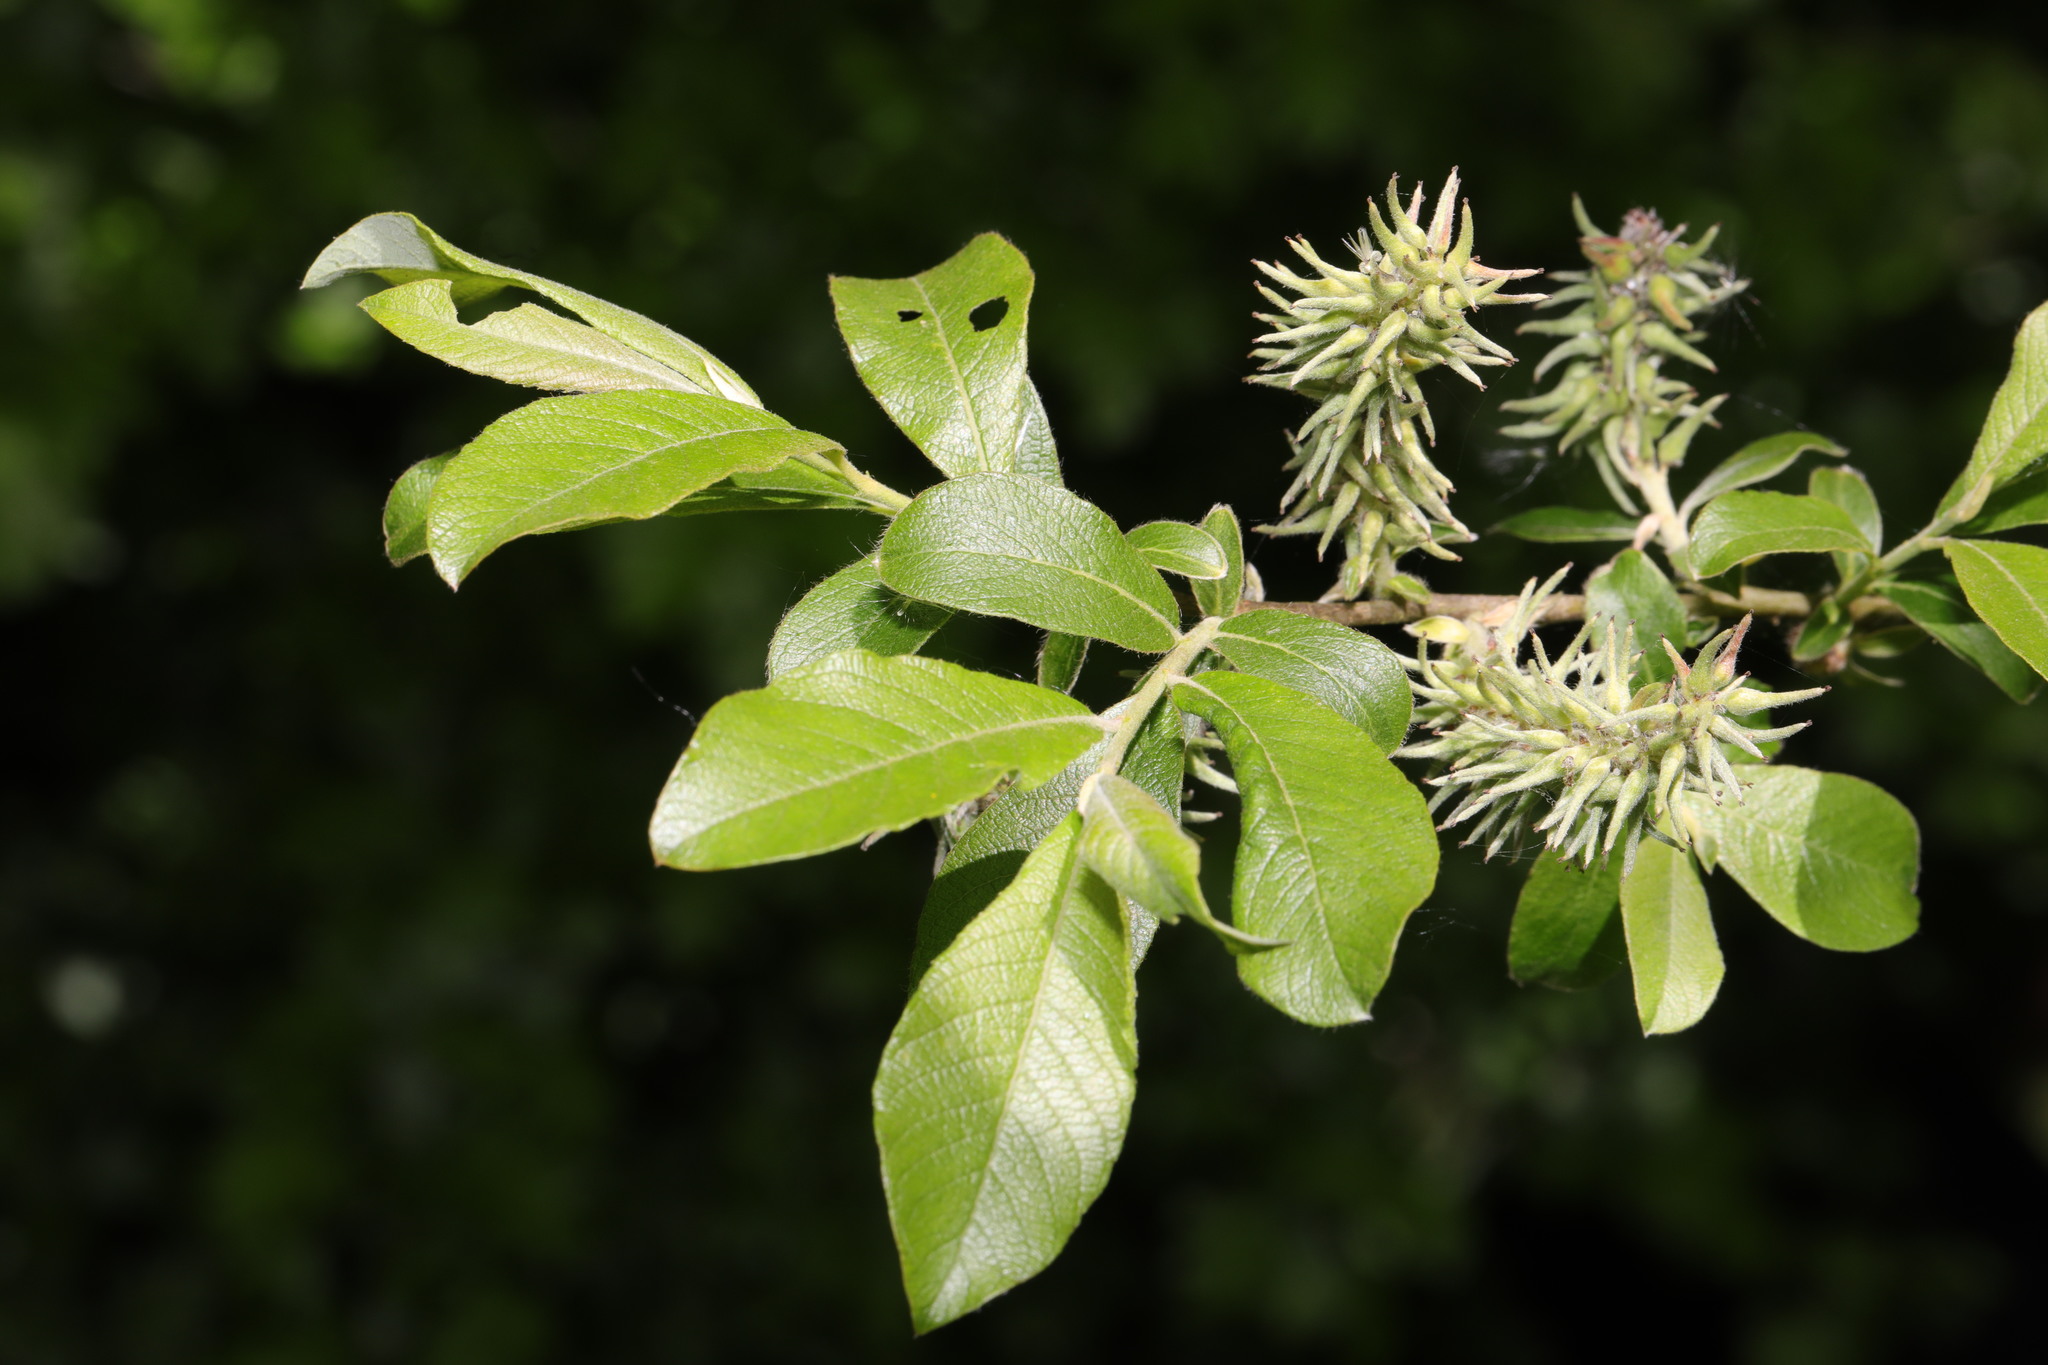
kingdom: Plantae
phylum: Tracheophyta
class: Magnoliopsida
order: Malpighiales
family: Salicaceae
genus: Salix
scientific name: Salix cinerea
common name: Common sallow
